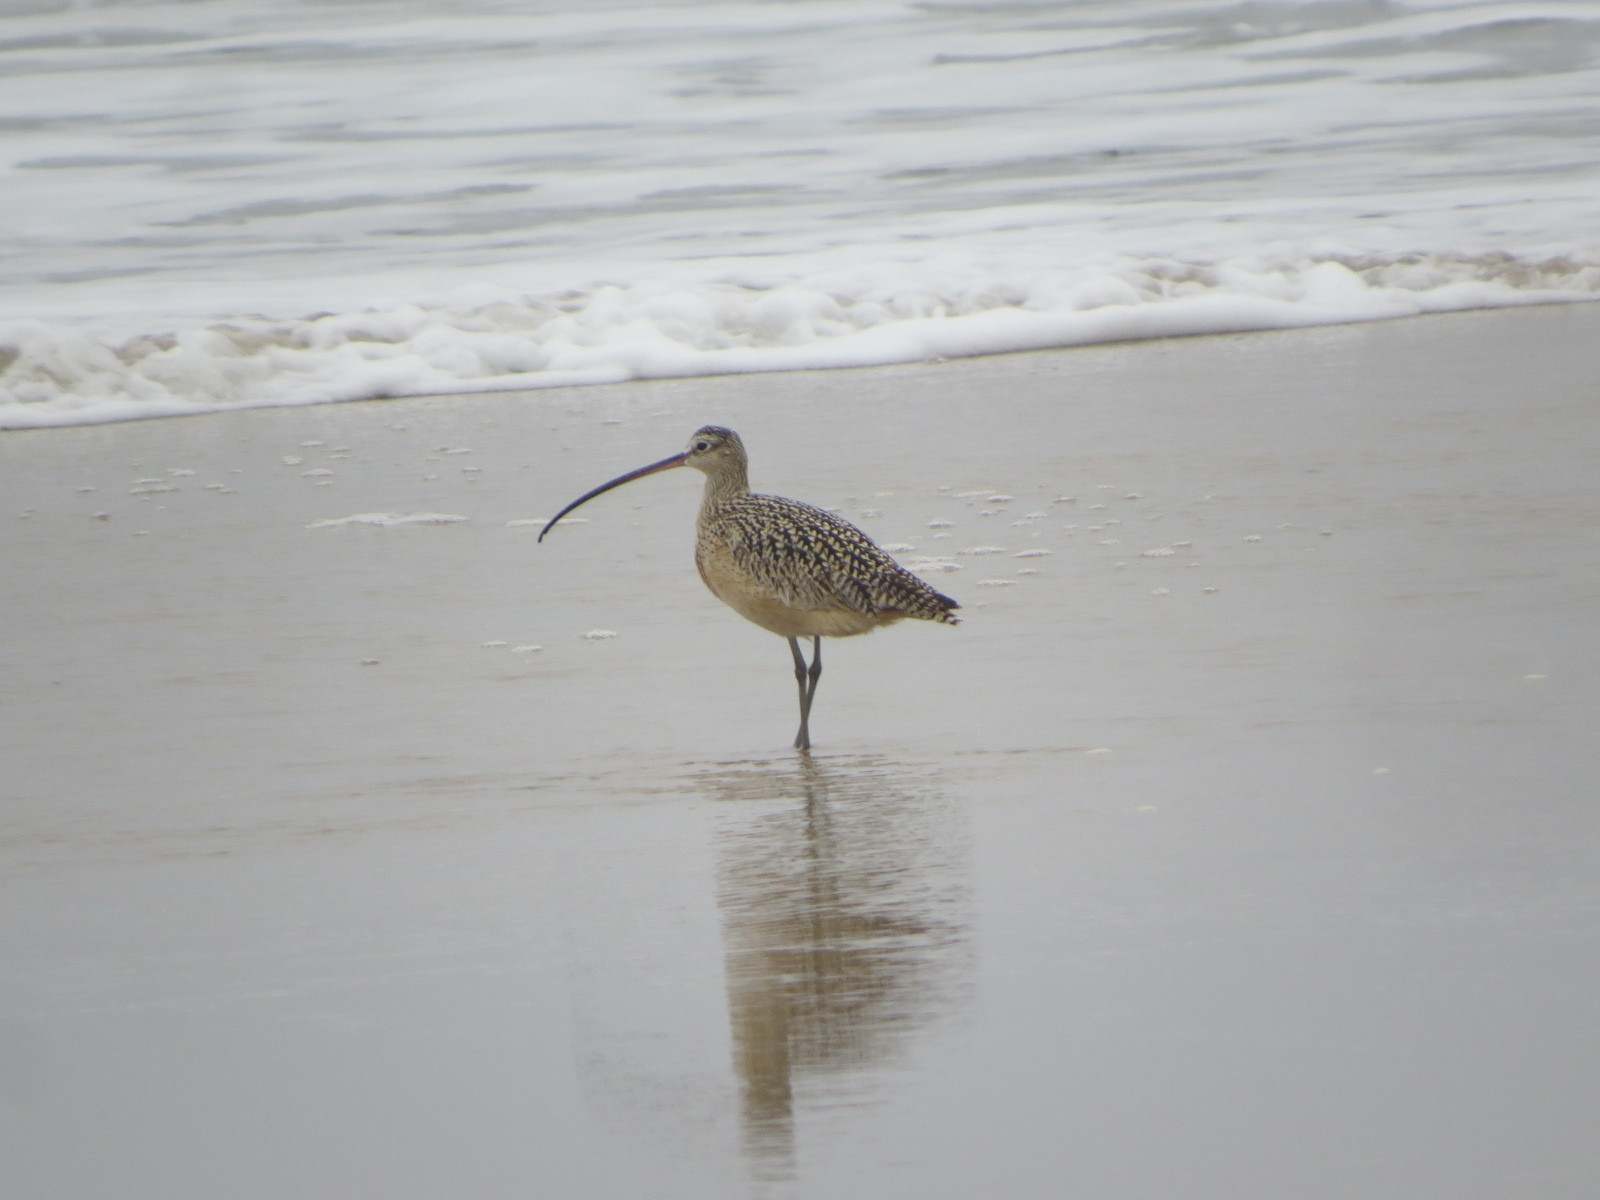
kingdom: Animalia
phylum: Chordata
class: Aves
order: Charadriiformes
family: Scolopacidae
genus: Numenius
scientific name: Numenius americanus
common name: Long-billed curlew
